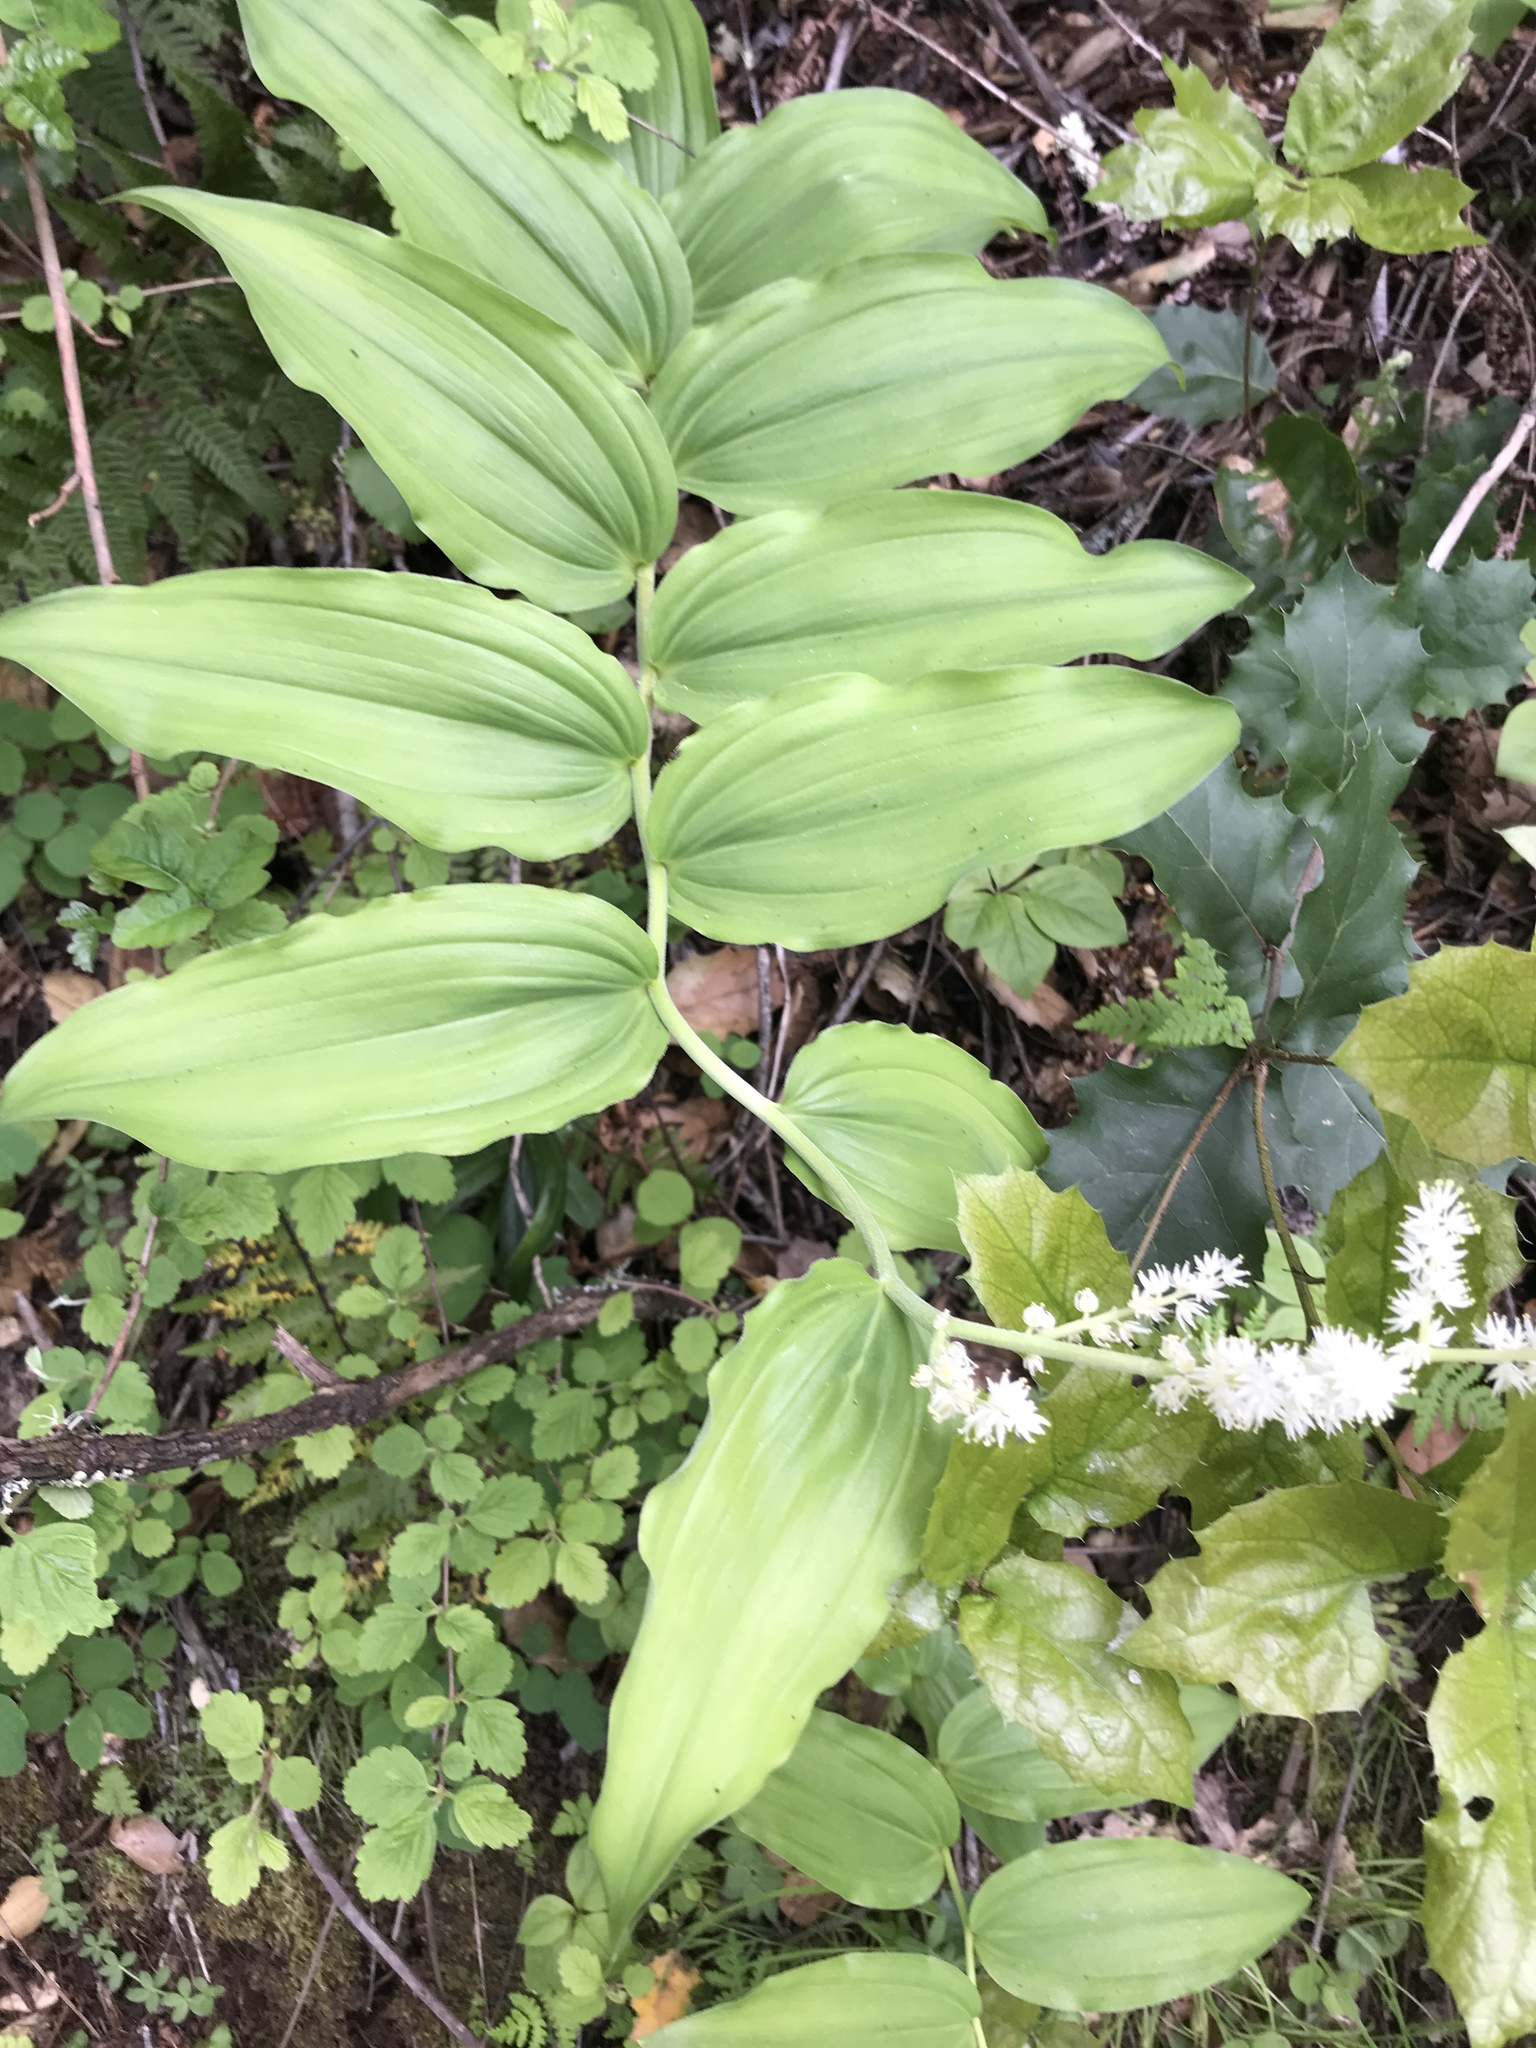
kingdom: Plantae
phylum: Tracheophyta
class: Liliopsida
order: Asparagales
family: Asparagaceae
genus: Maianthemum
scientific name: Maianthemum racemosum
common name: False spikenard
